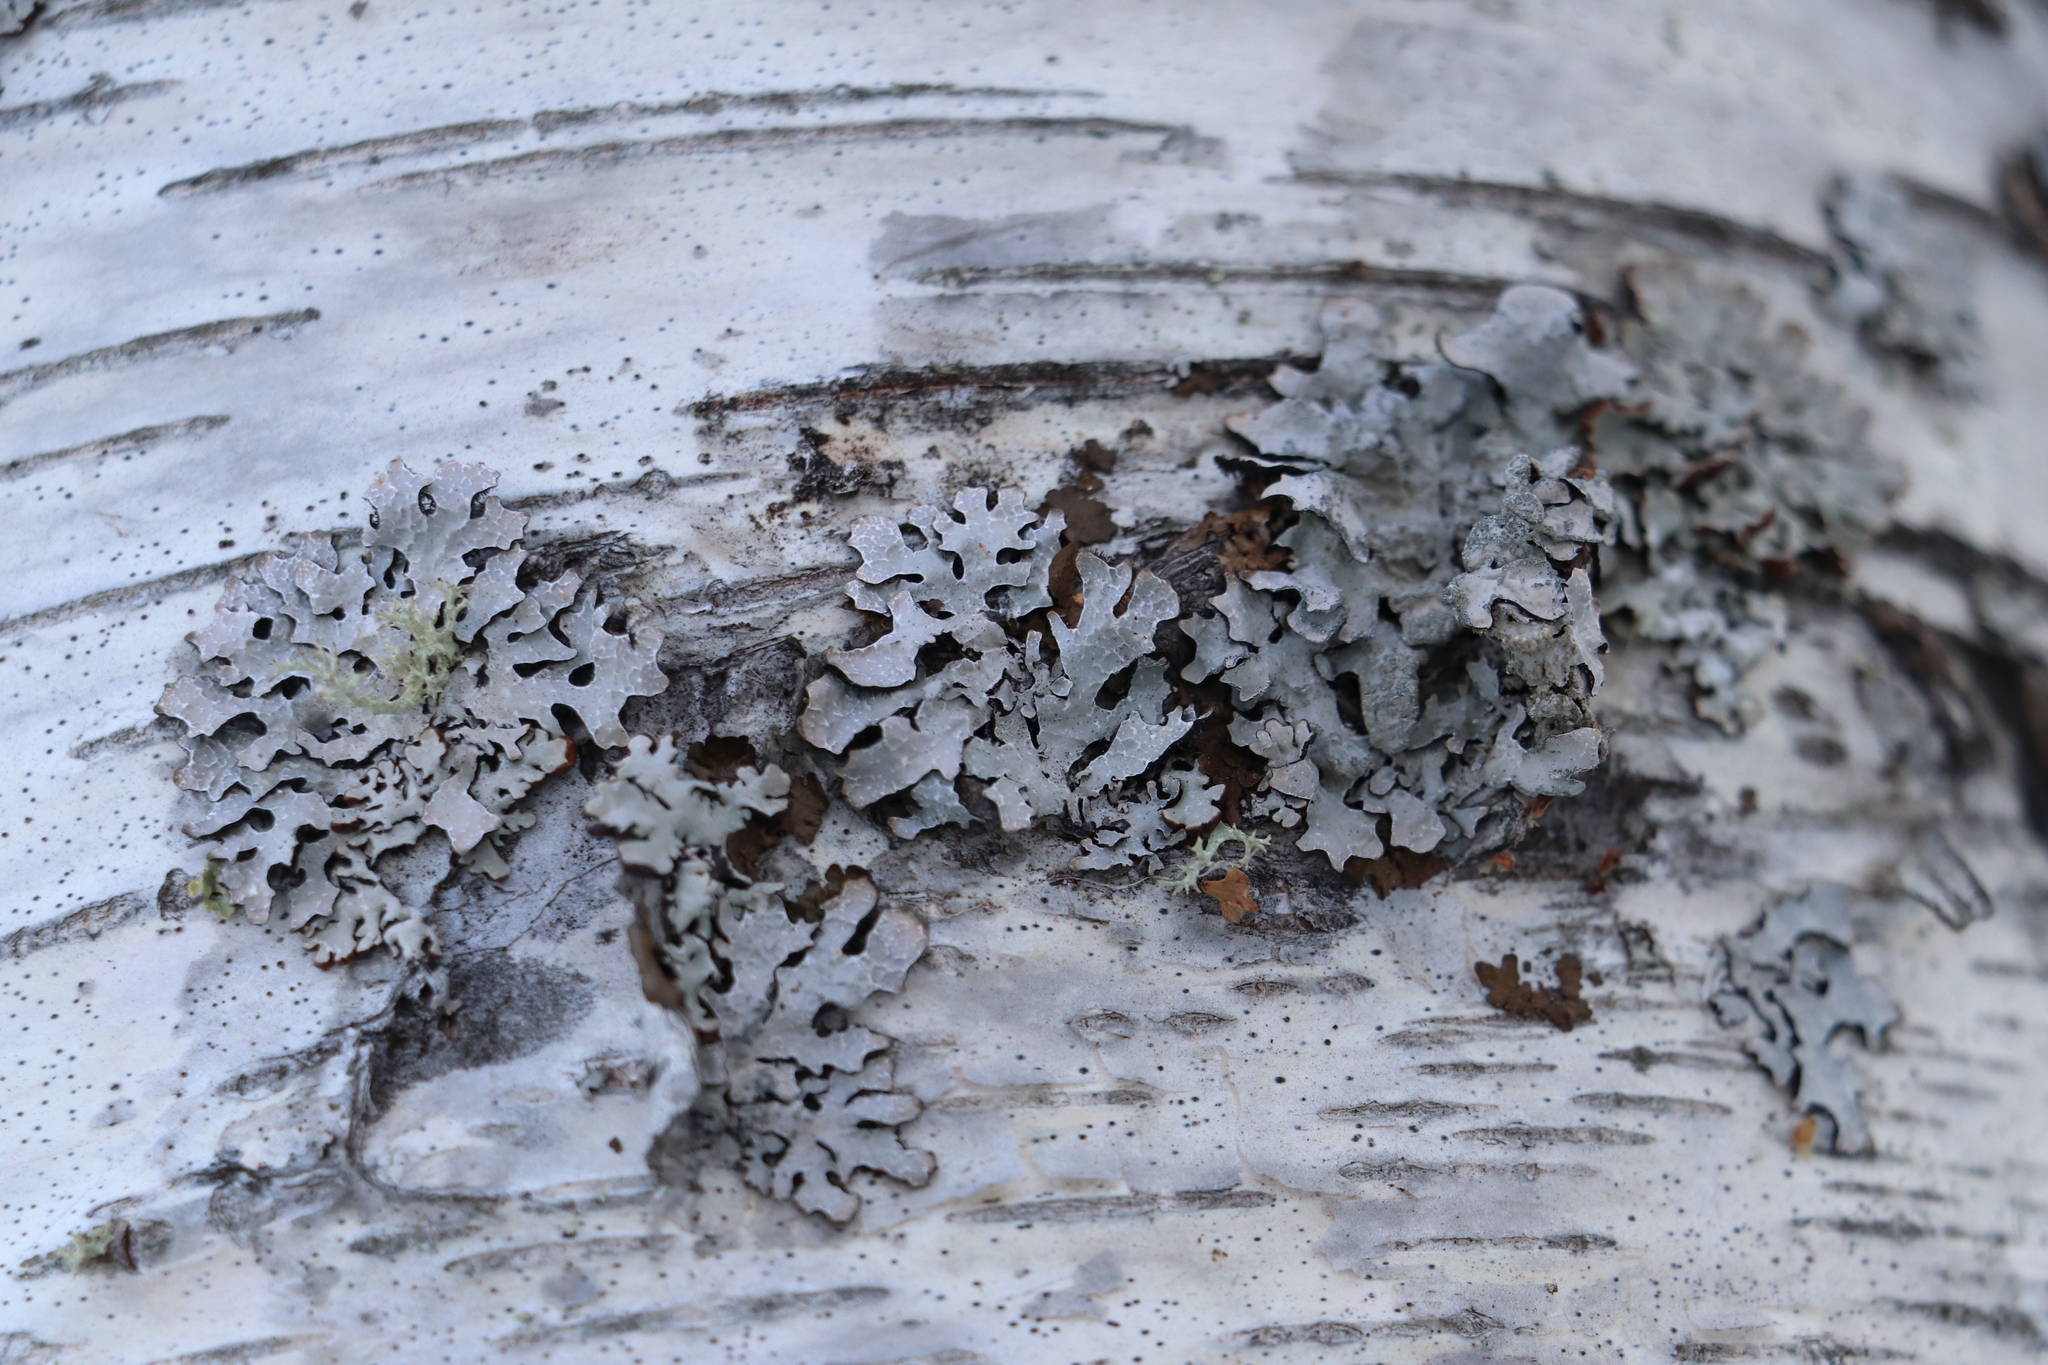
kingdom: Fungi
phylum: Ascomycota
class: Lecanoromycetes
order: Lecanorales
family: Parmeliaceae
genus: Parmelia
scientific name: Parmelia sulcata
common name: Netted shield lichen
